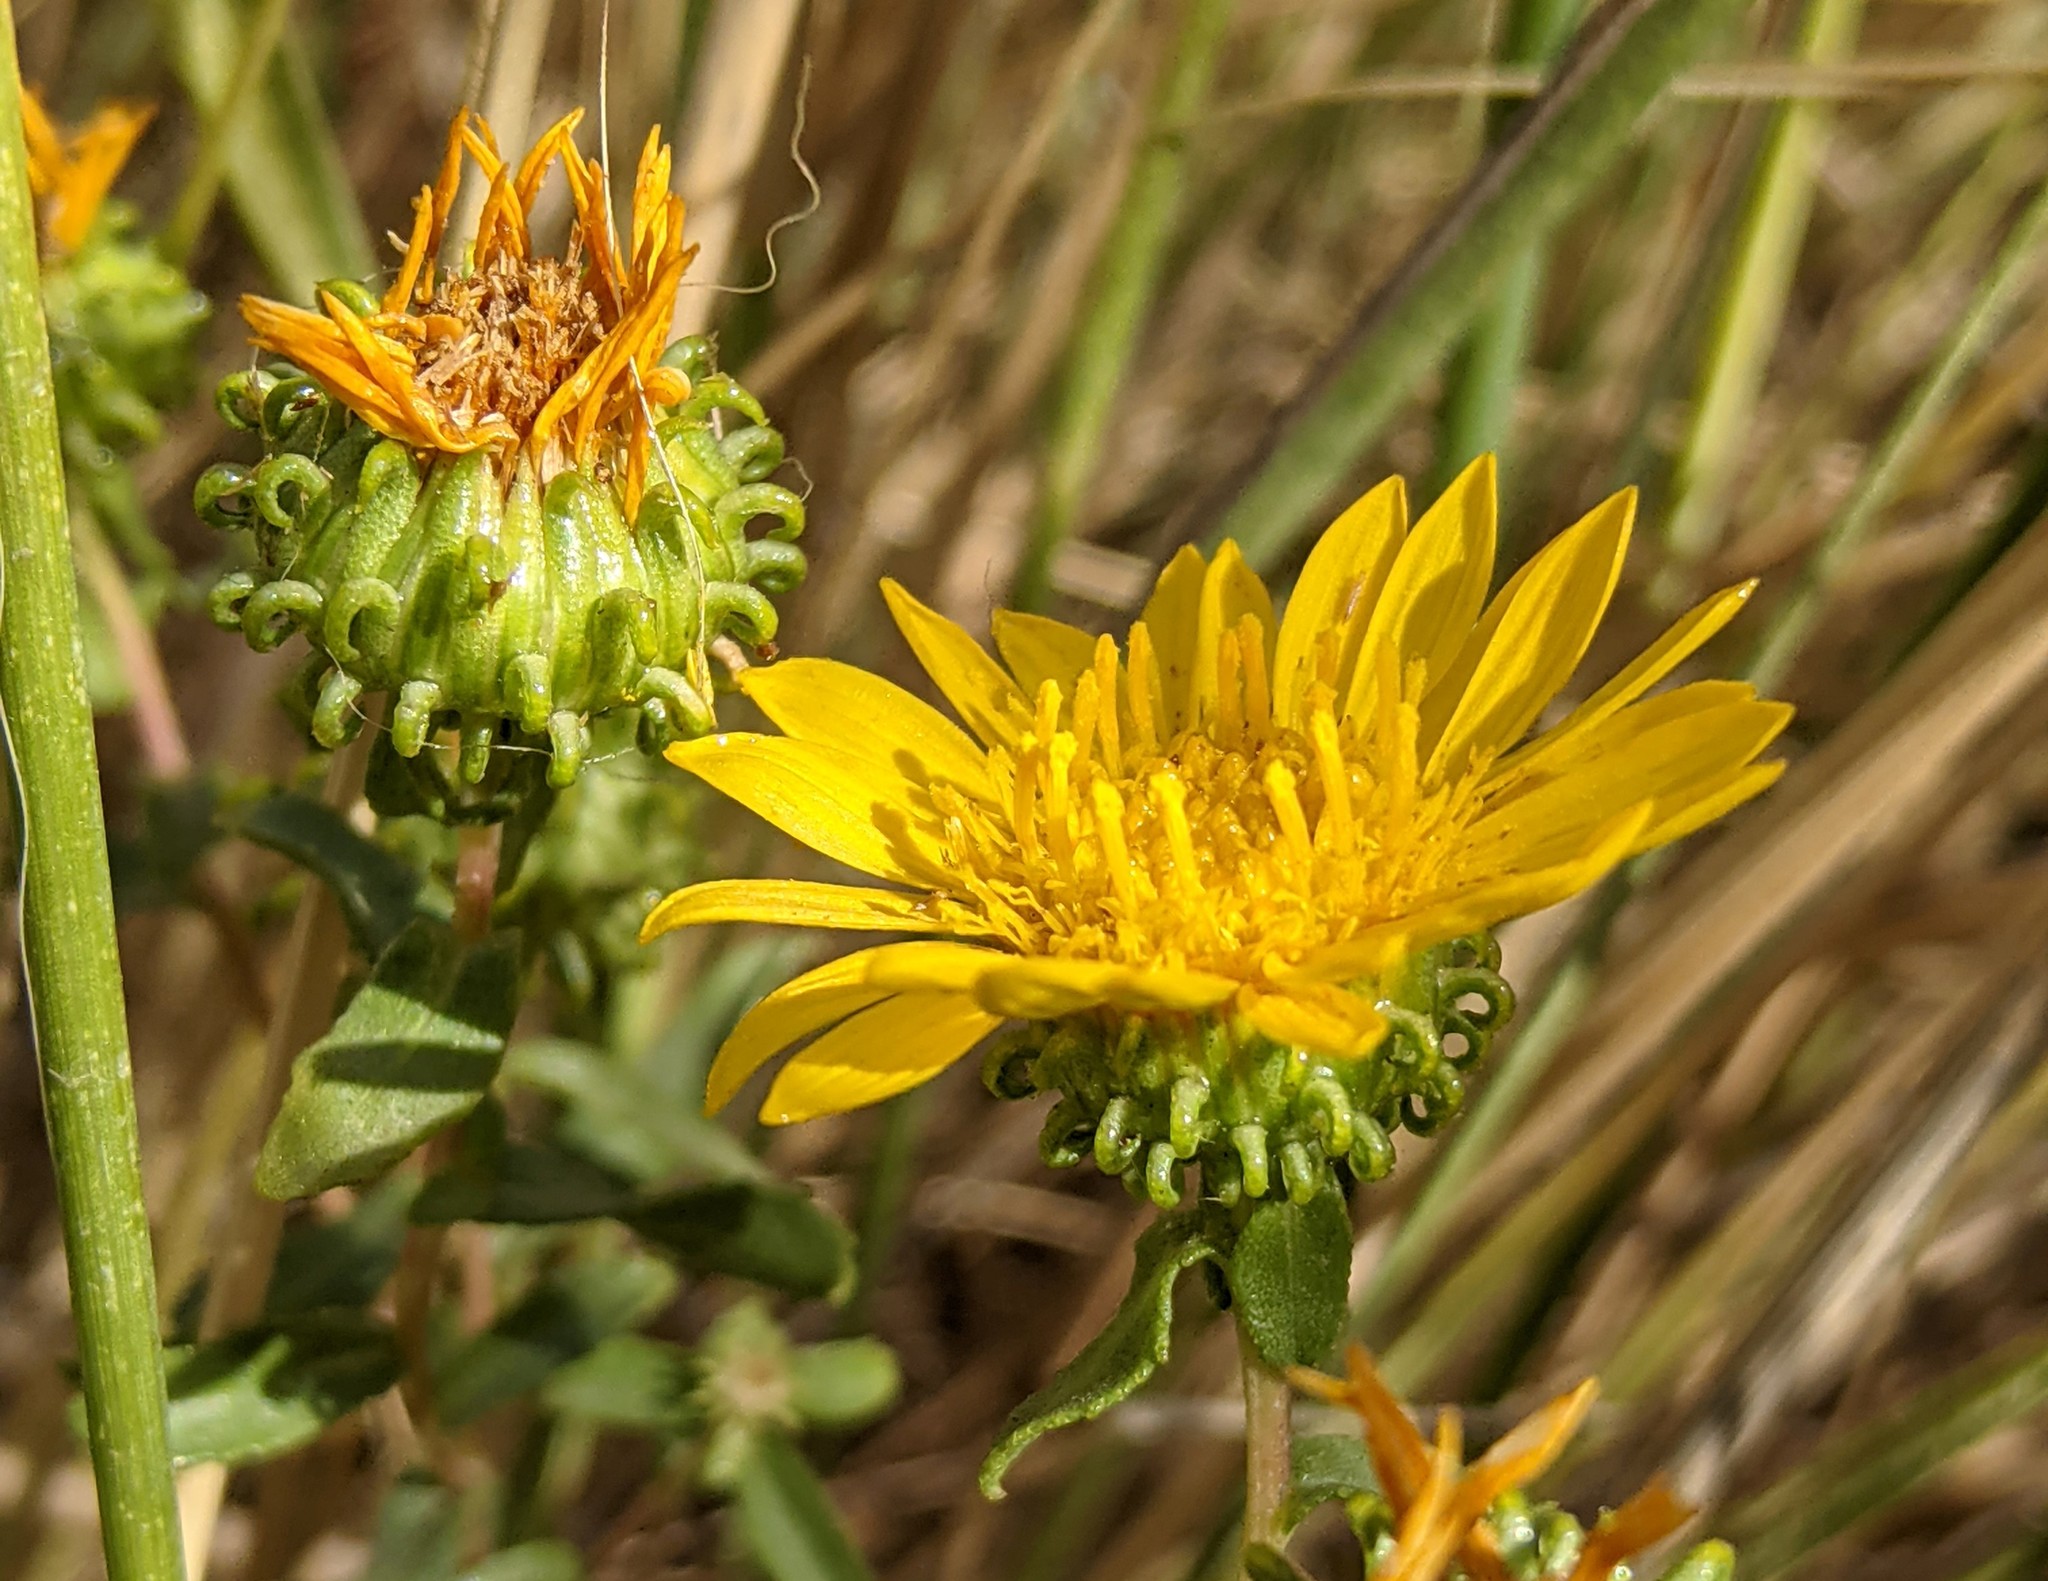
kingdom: Plantae
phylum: Tracheophyta
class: Magnoliopsida
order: Asterales
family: Asteraceae
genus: Grindelia
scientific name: Grindelia squarrosa
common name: Curly-cup gumweed
